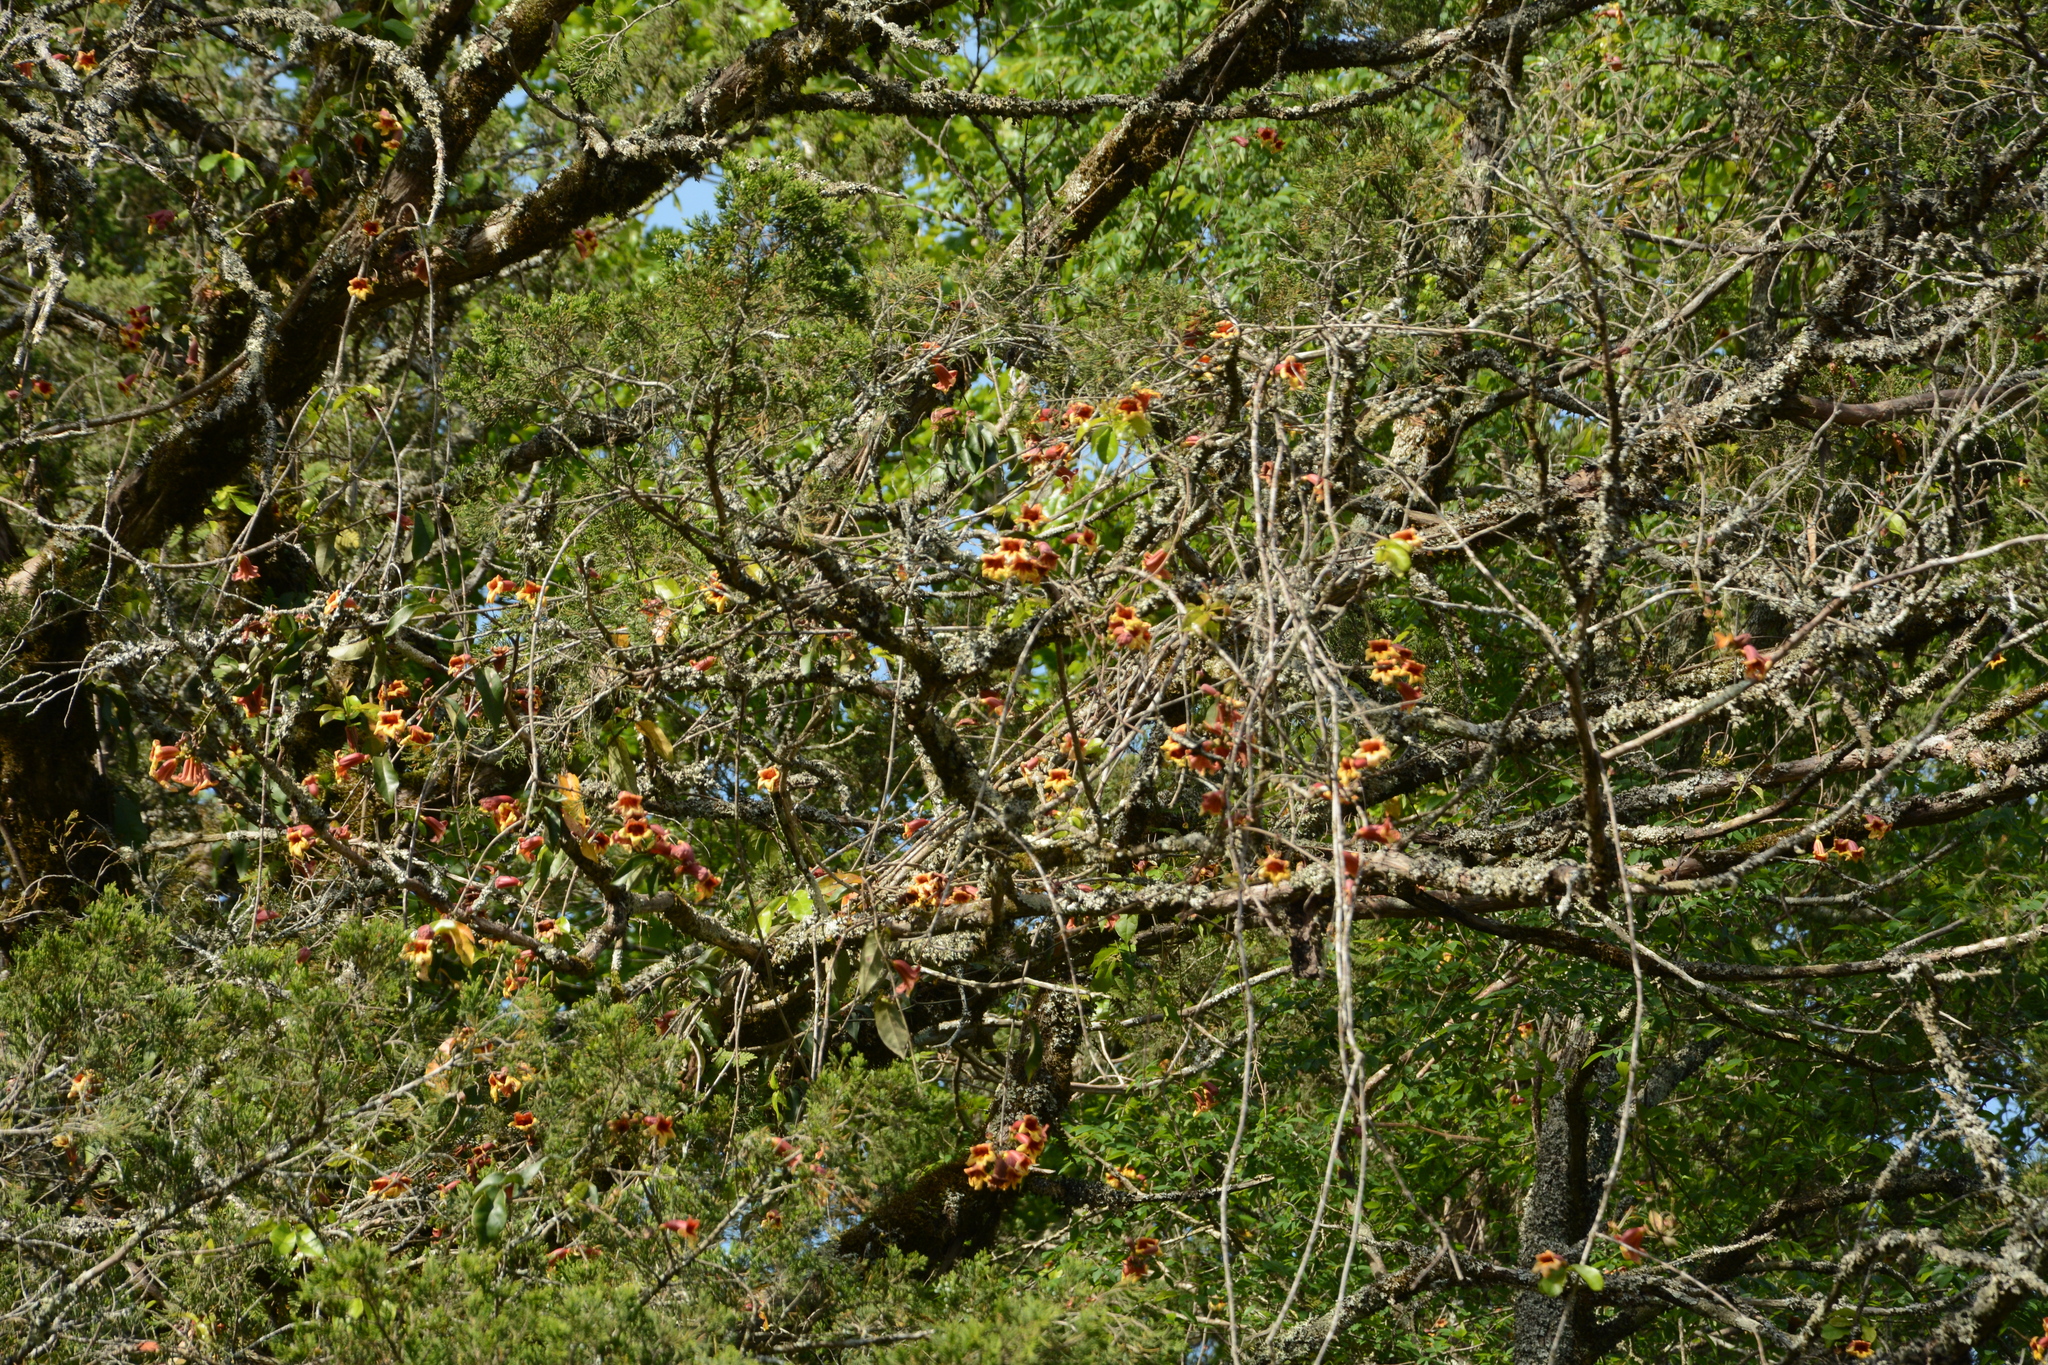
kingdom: Plantae
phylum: Tracheophyta
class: Magnoliopsida
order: Lamiales
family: Bignoniaceae
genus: Bignonia
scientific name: Bignonia capreolata
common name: Crossvine
